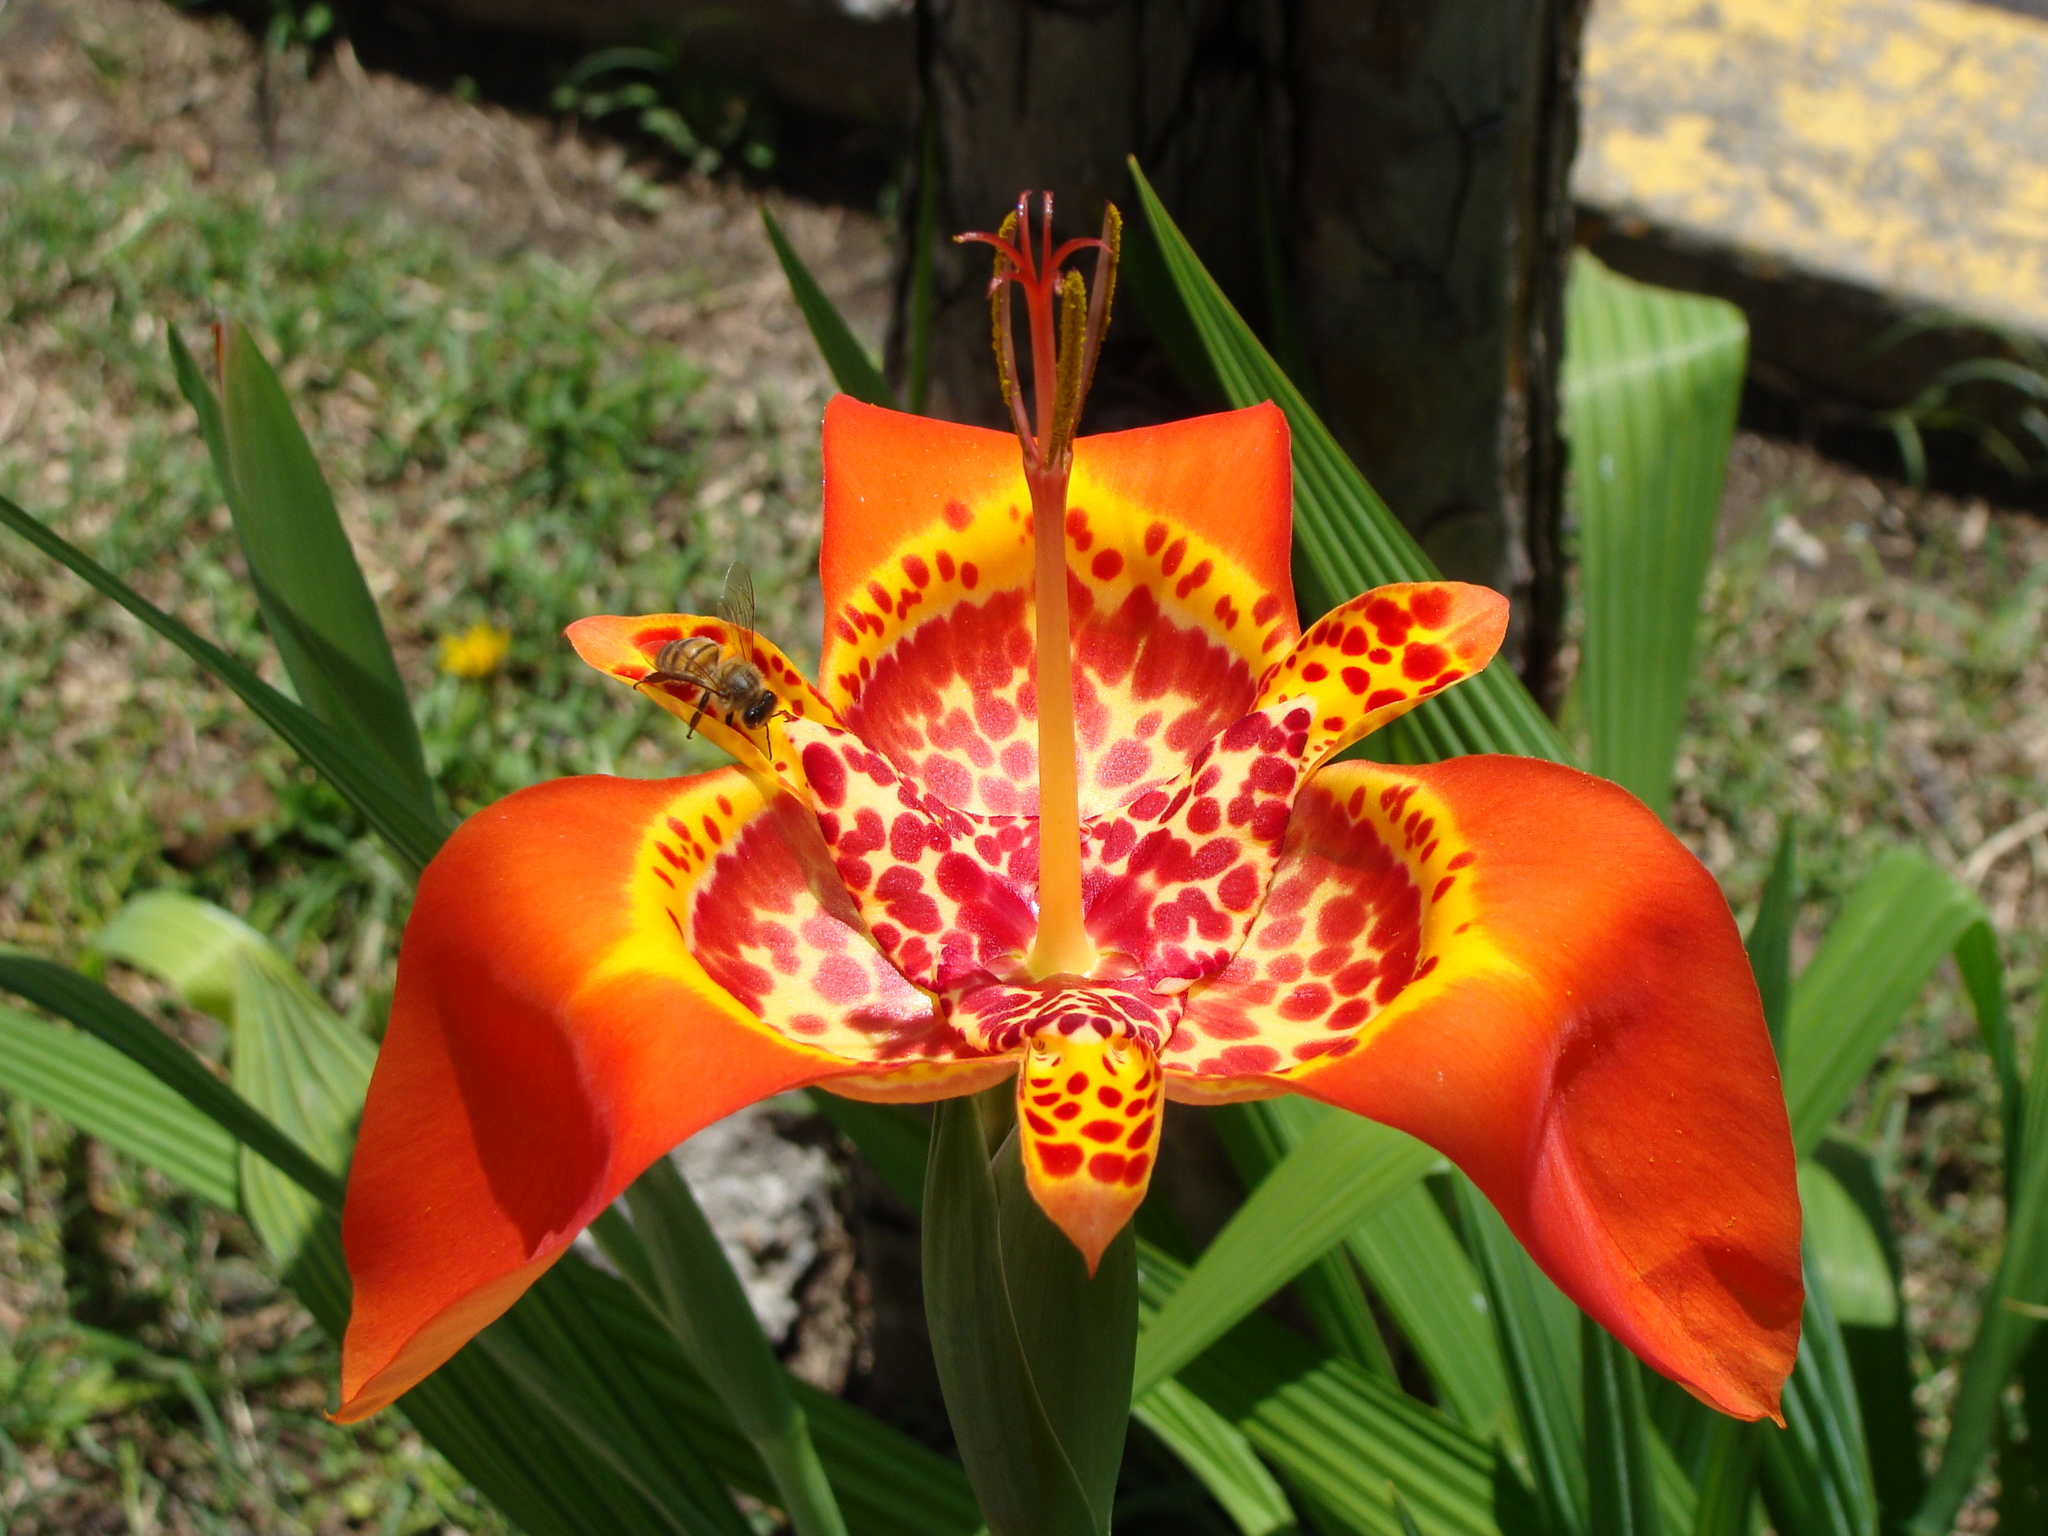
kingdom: Animalia
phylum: Arthropoda
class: Insecta
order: Hymenoptera
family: Apidae
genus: Apis
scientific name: Apis mellifera
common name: Honey bee
